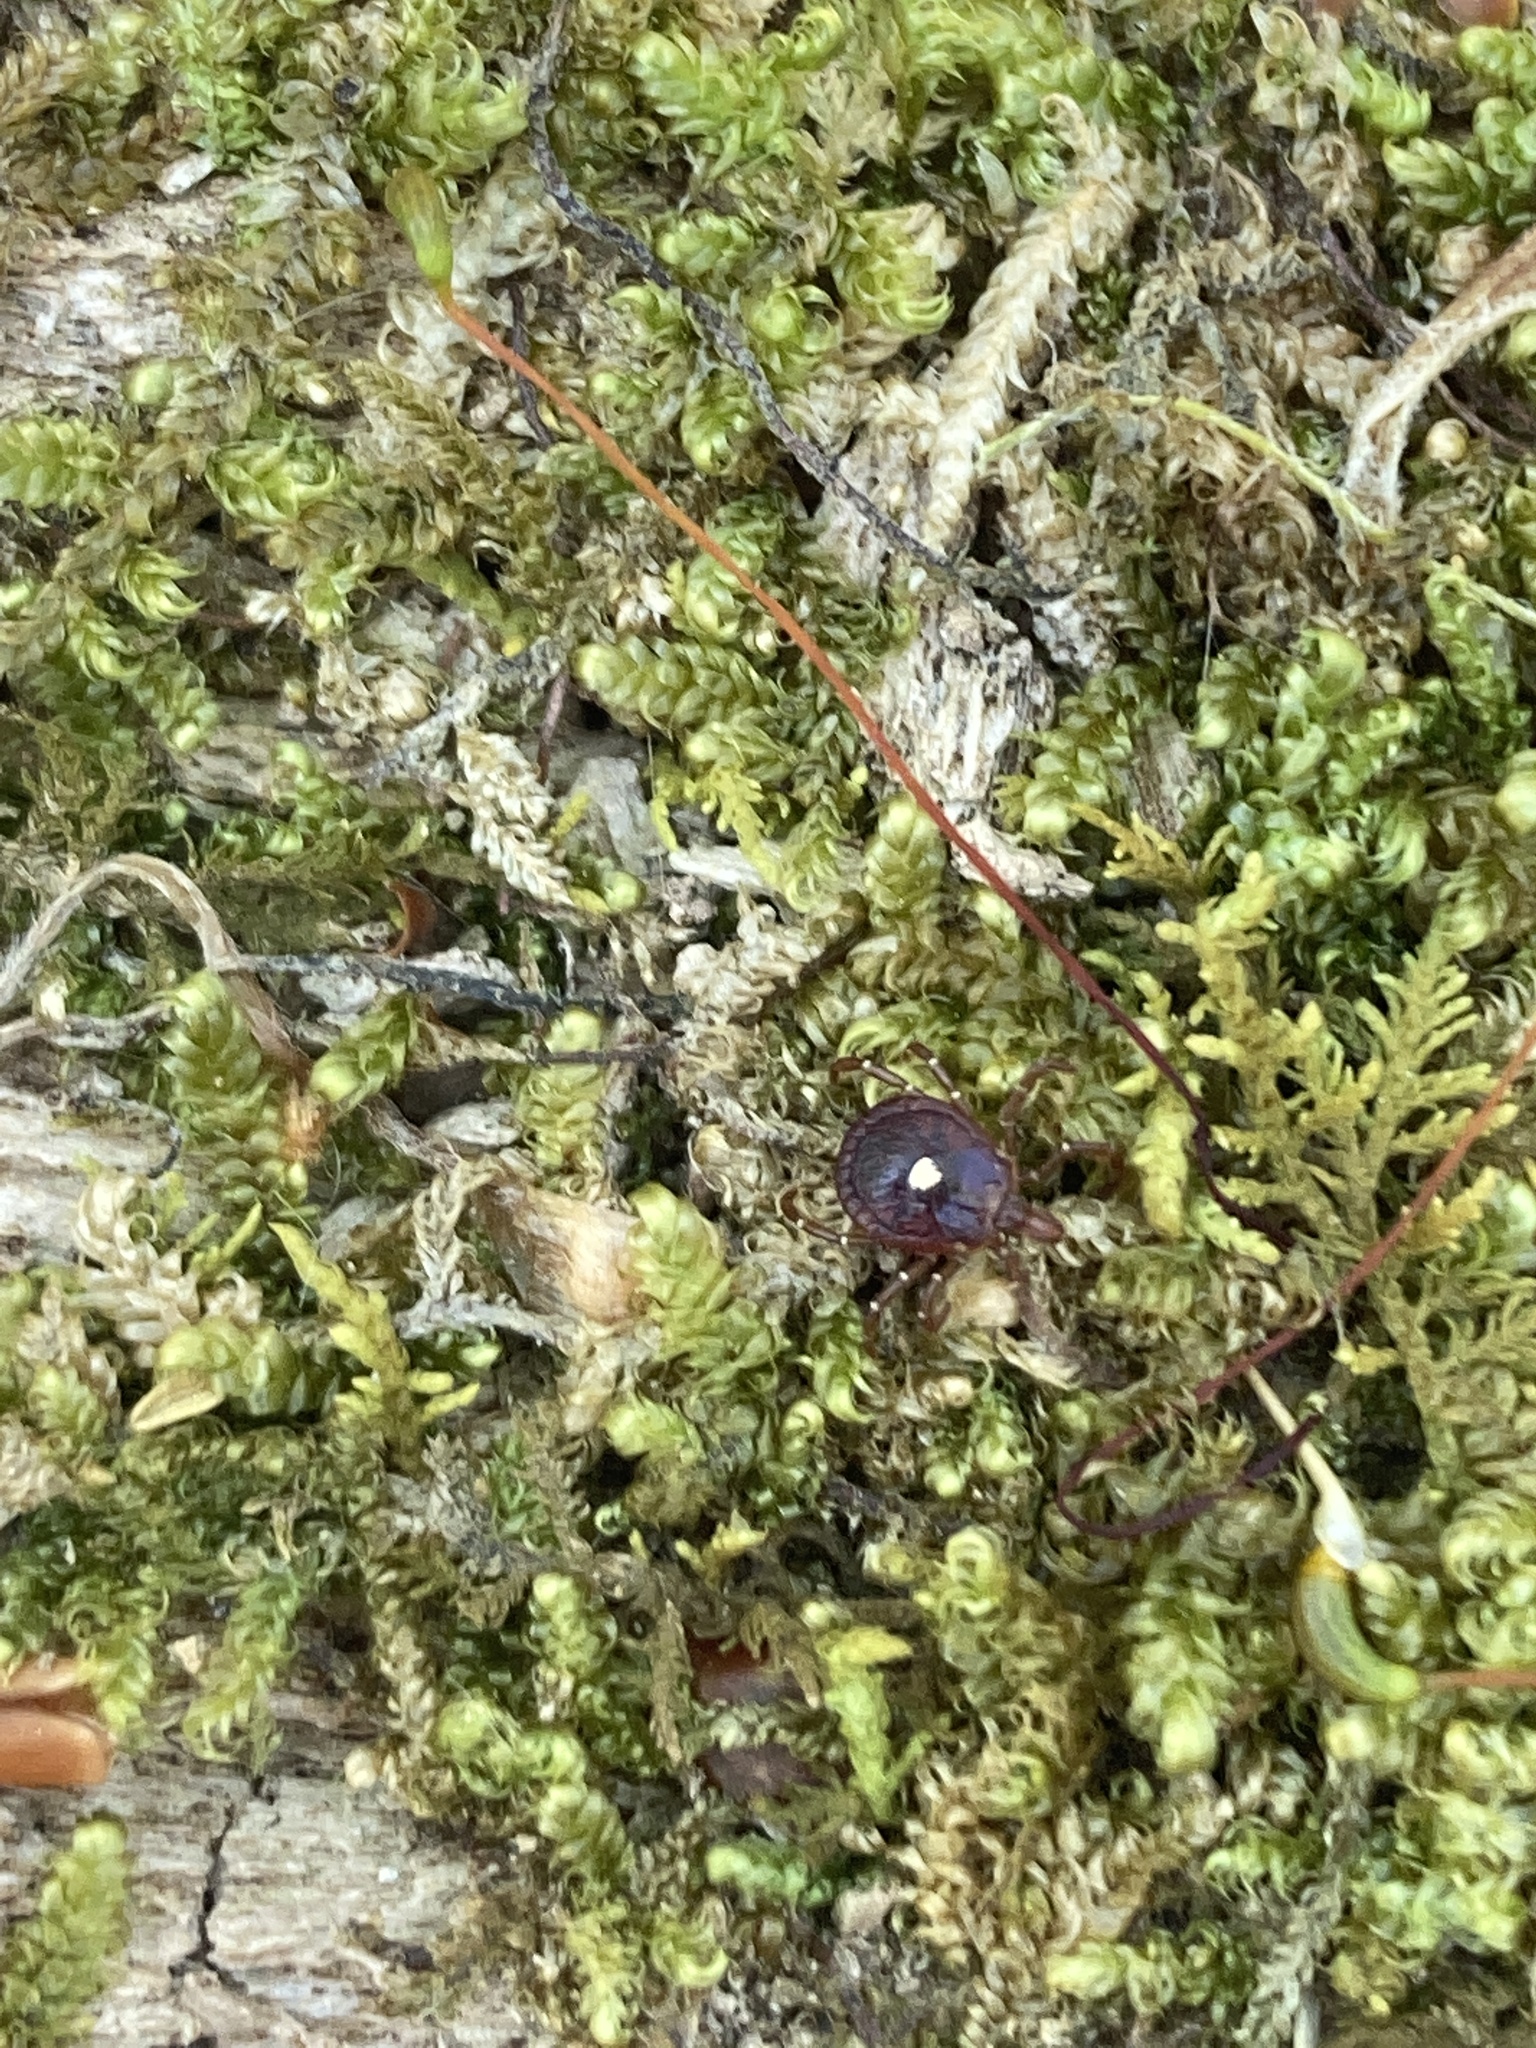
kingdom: Animalia
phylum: Arthropoda
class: Arachnida
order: Ixodida
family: Ixodidae
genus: Amblyomma
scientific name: Amblyomma americanum
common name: Lone star tick
